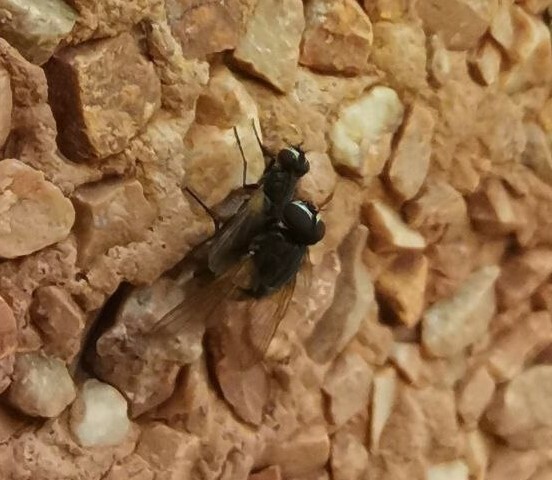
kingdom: Animalia
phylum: Arthropoda
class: Insecta
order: Diptera
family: Muscidae
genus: Musca
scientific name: Musca domestica
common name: House fly
